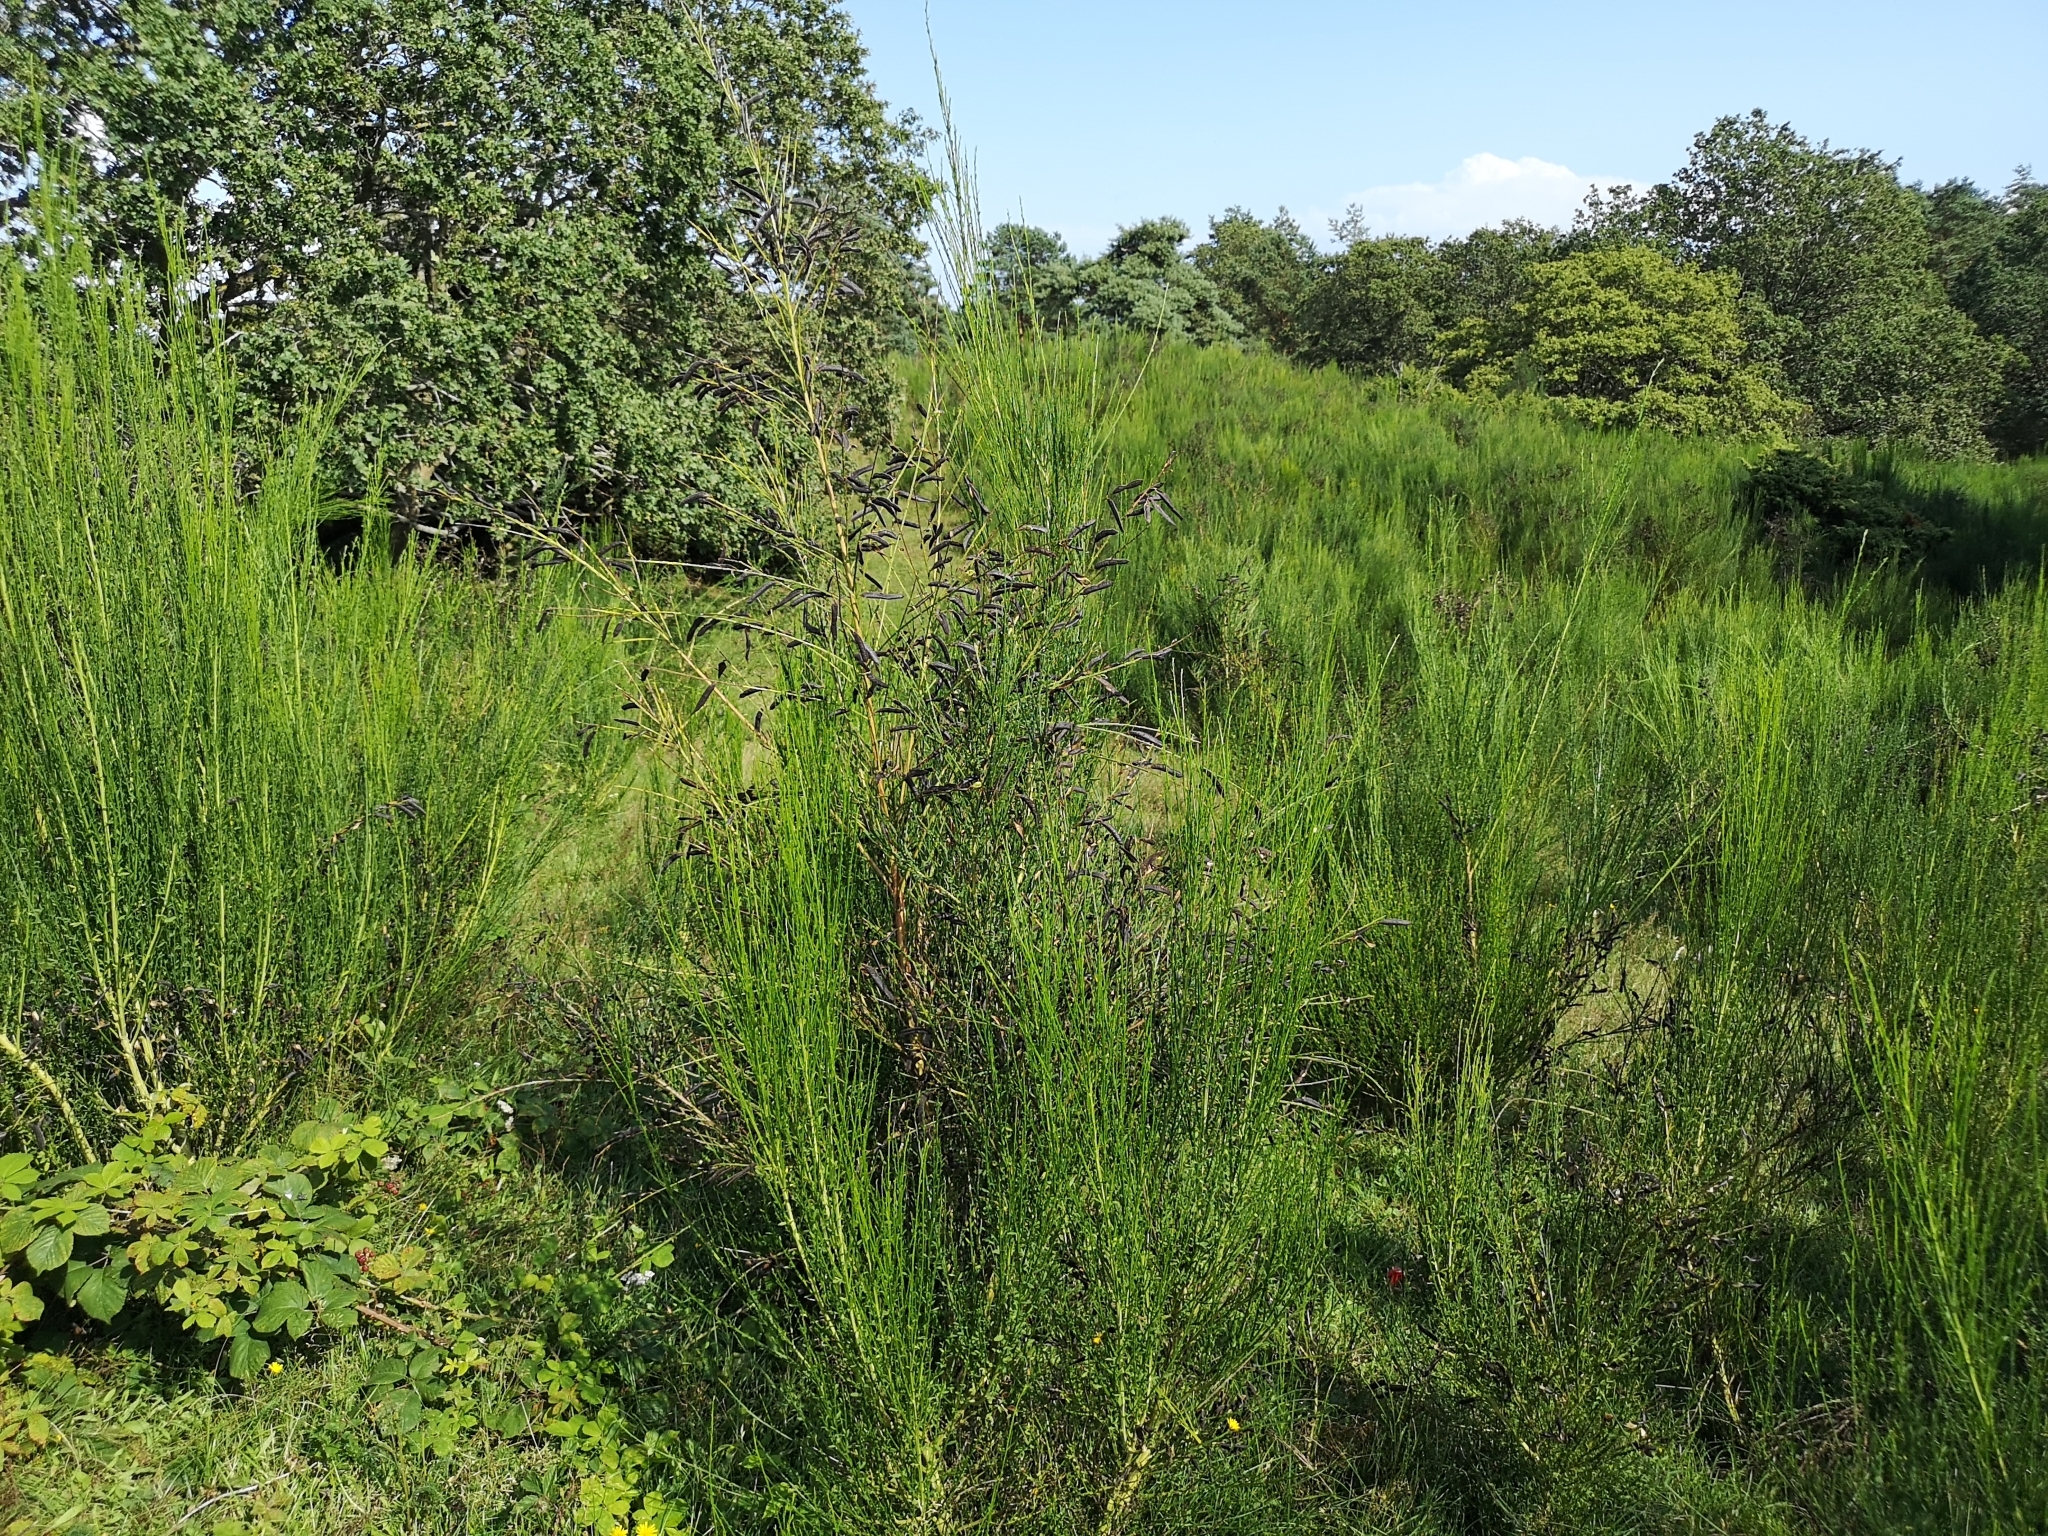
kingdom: Plantae
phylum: Tracheophyta
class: Magnoliopsida
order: Fabales
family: Fabaceae
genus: Cytisus
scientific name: Cytisus scoparius
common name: Scotch broom
